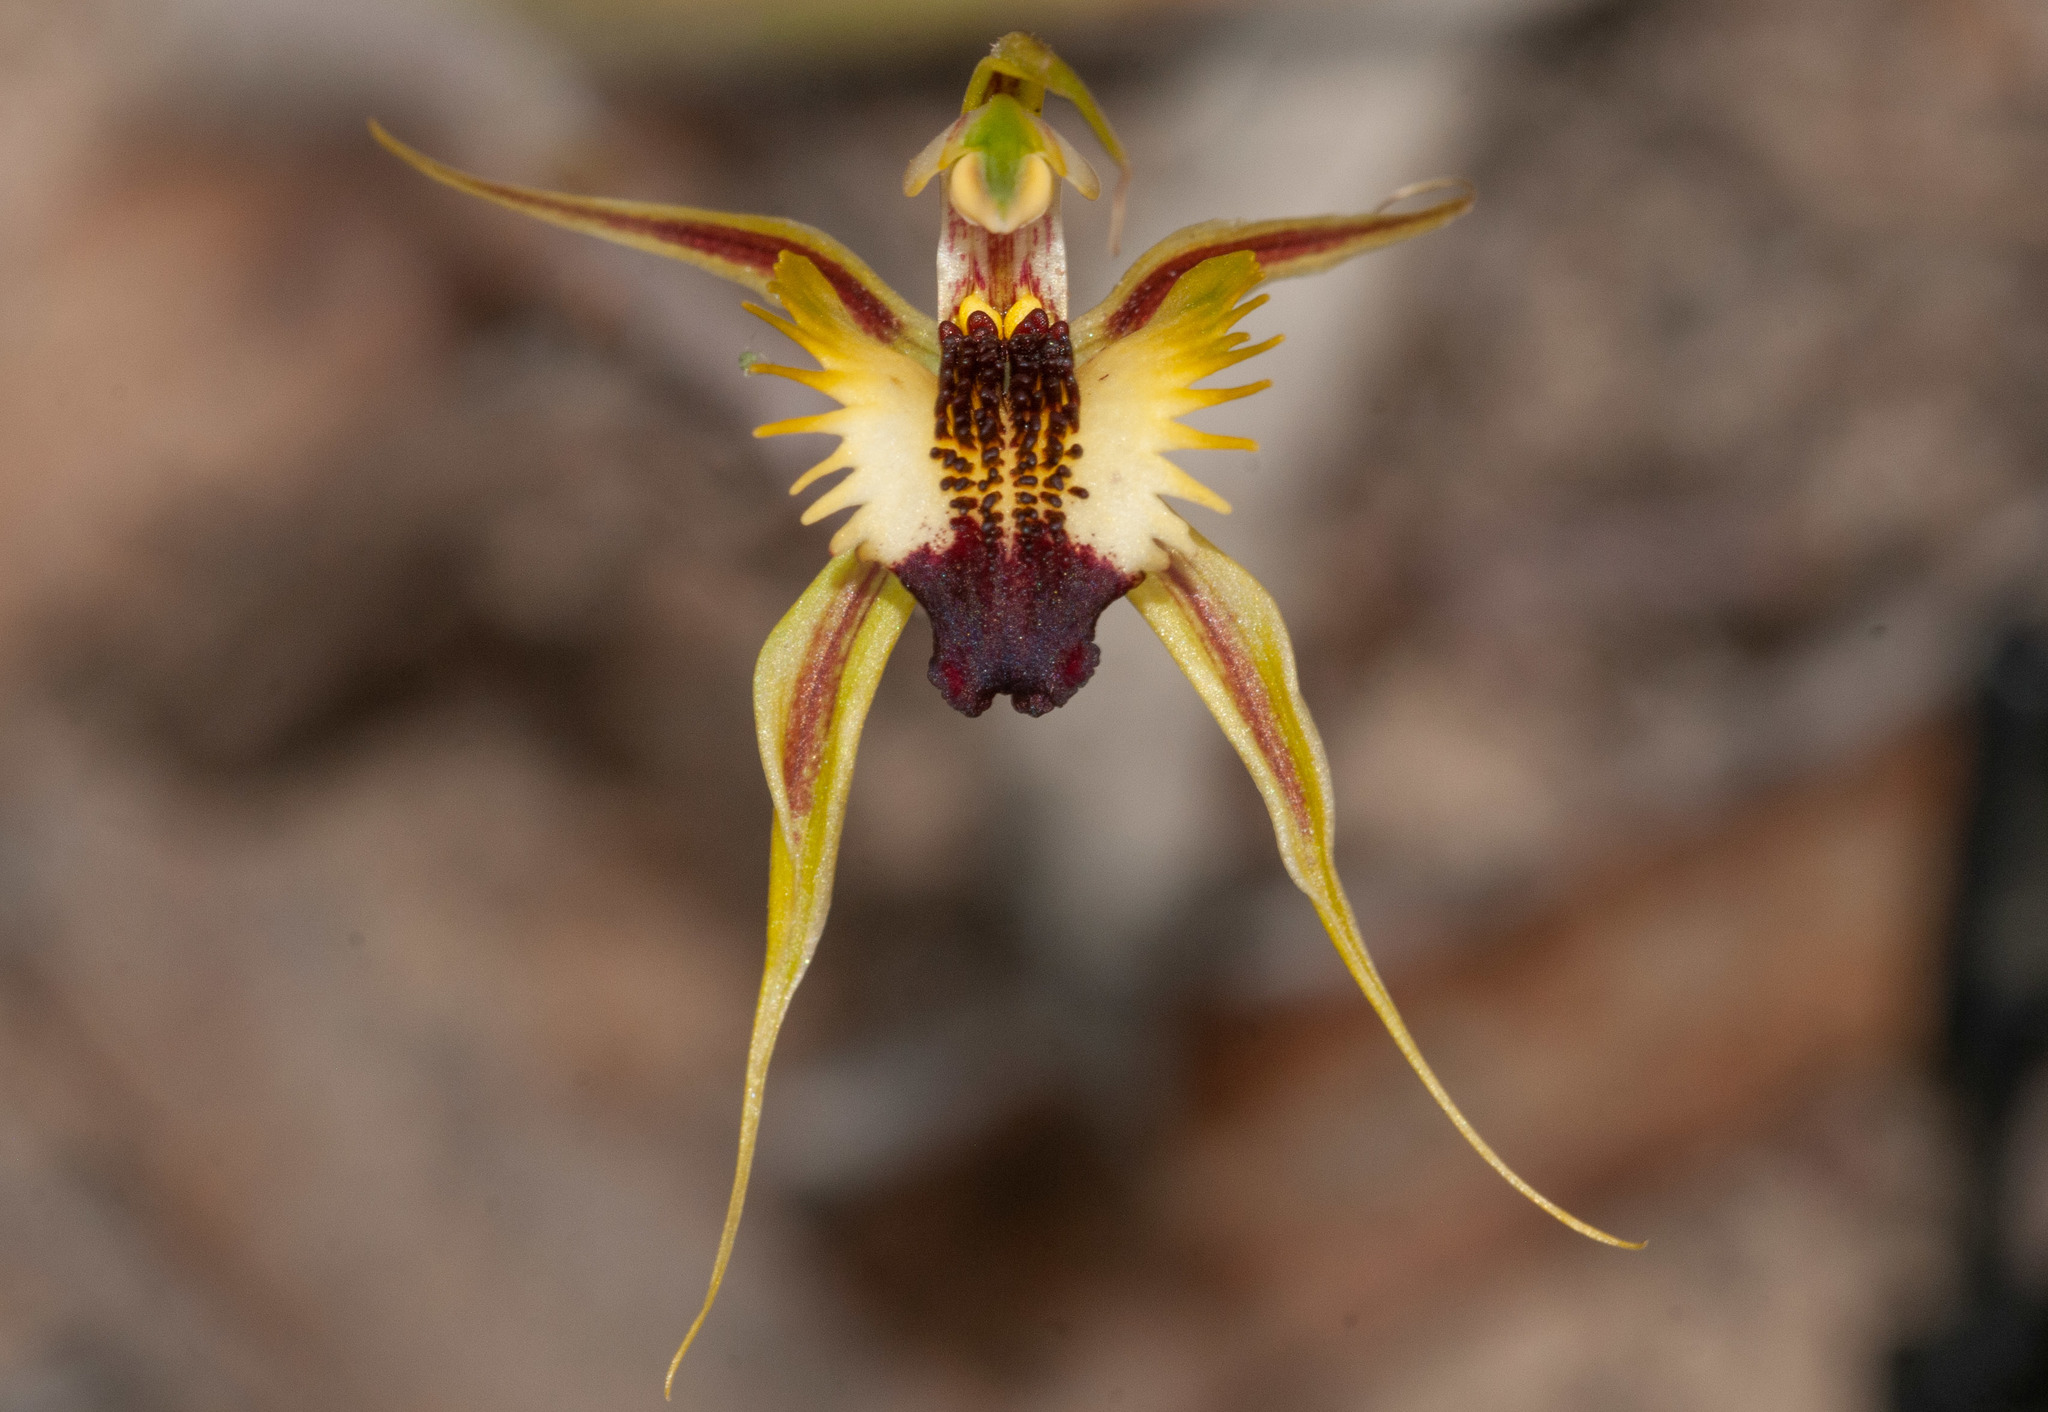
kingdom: Plantae
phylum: Tracheophyta
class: Liliopsida
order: Asparagales
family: Orchidaceae
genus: Caladenia
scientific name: Caladenia stricta
